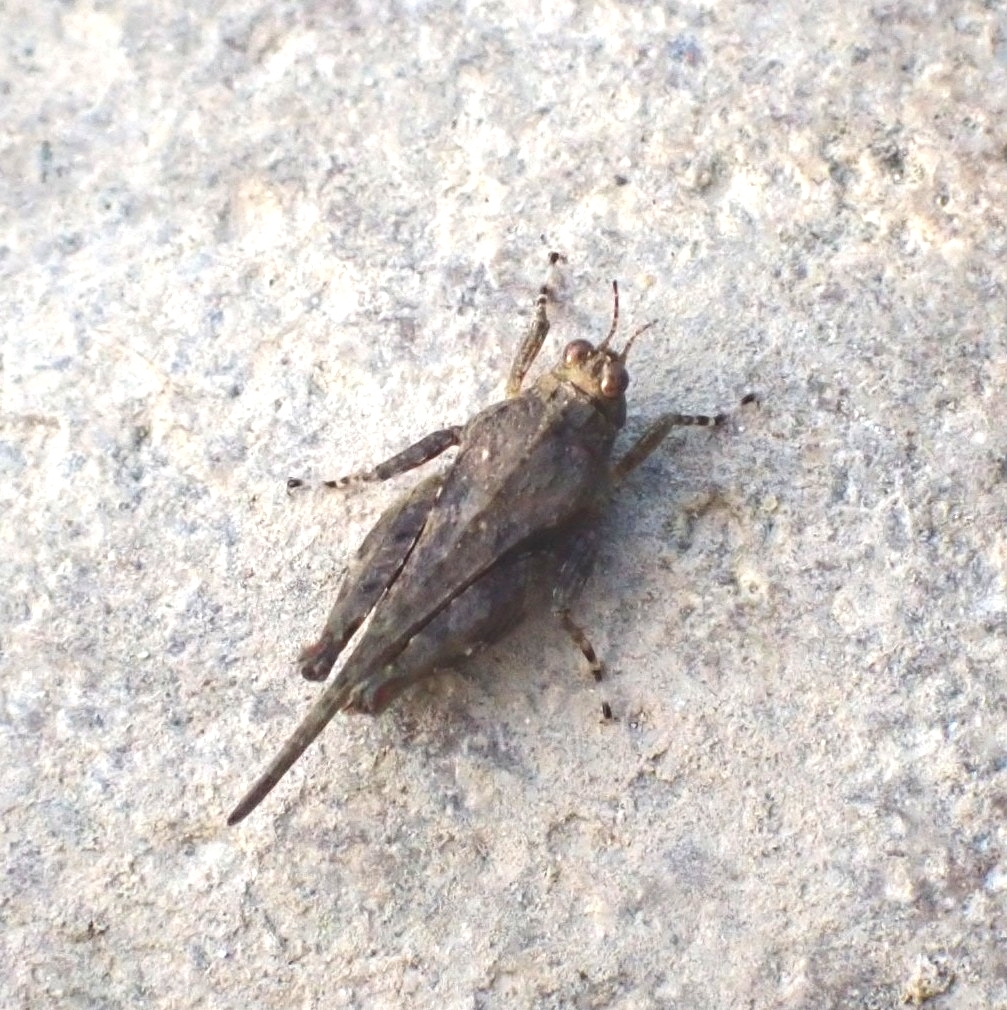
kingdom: Animalia
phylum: Arthropoda
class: Insecta
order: Orthoptera
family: Tetrigidae
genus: Paratettix
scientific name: Paratettix meridionalis
